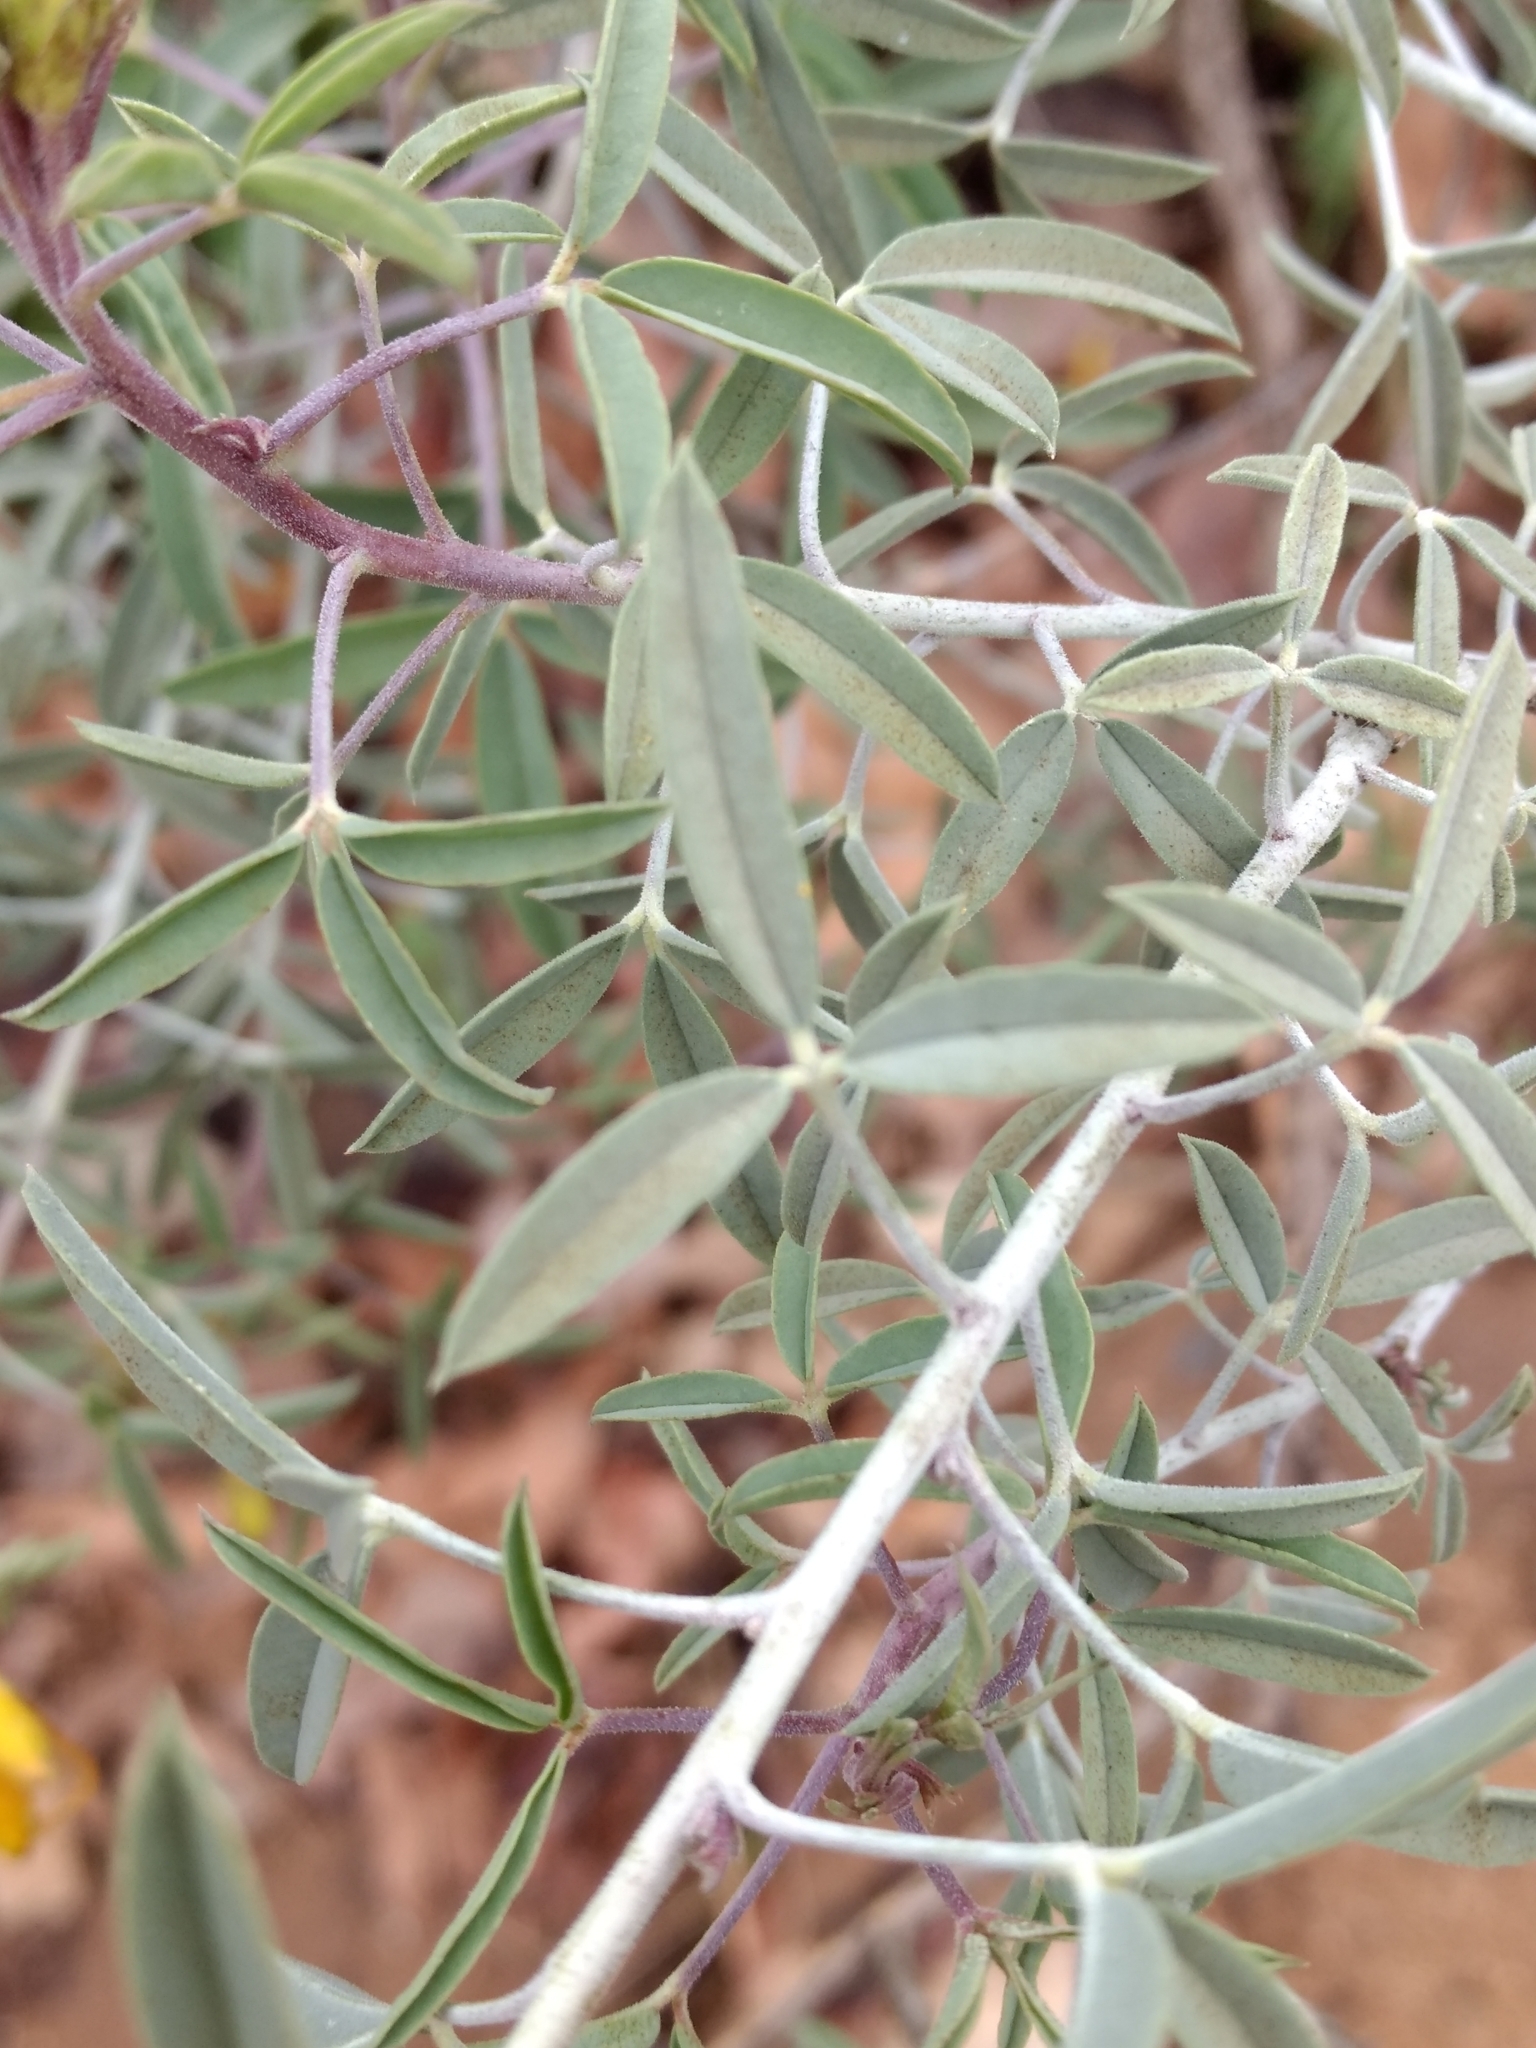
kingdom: Plantae
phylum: Tracheophyta
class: Magnoliopsida
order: Brassicales
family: Cleomaceae
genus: Cleomella
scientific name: Cleomella arborea
